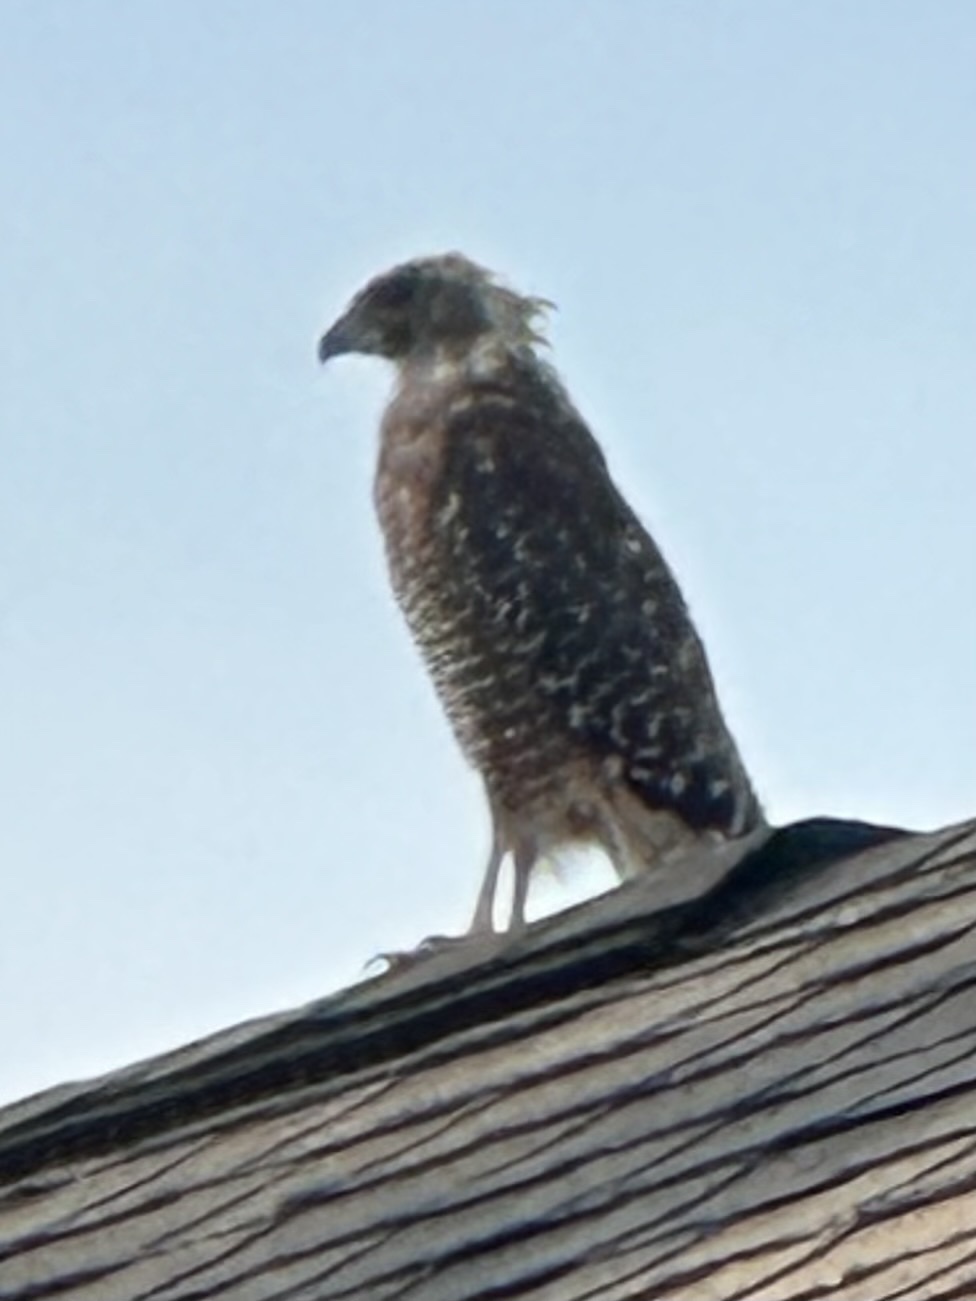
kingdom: Animalia
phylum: Chordata
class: Aves
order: Accipitriformes
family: Accipitridae
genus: Buteo
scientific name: Buteo lineatus
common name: Red-shouldered hawk
